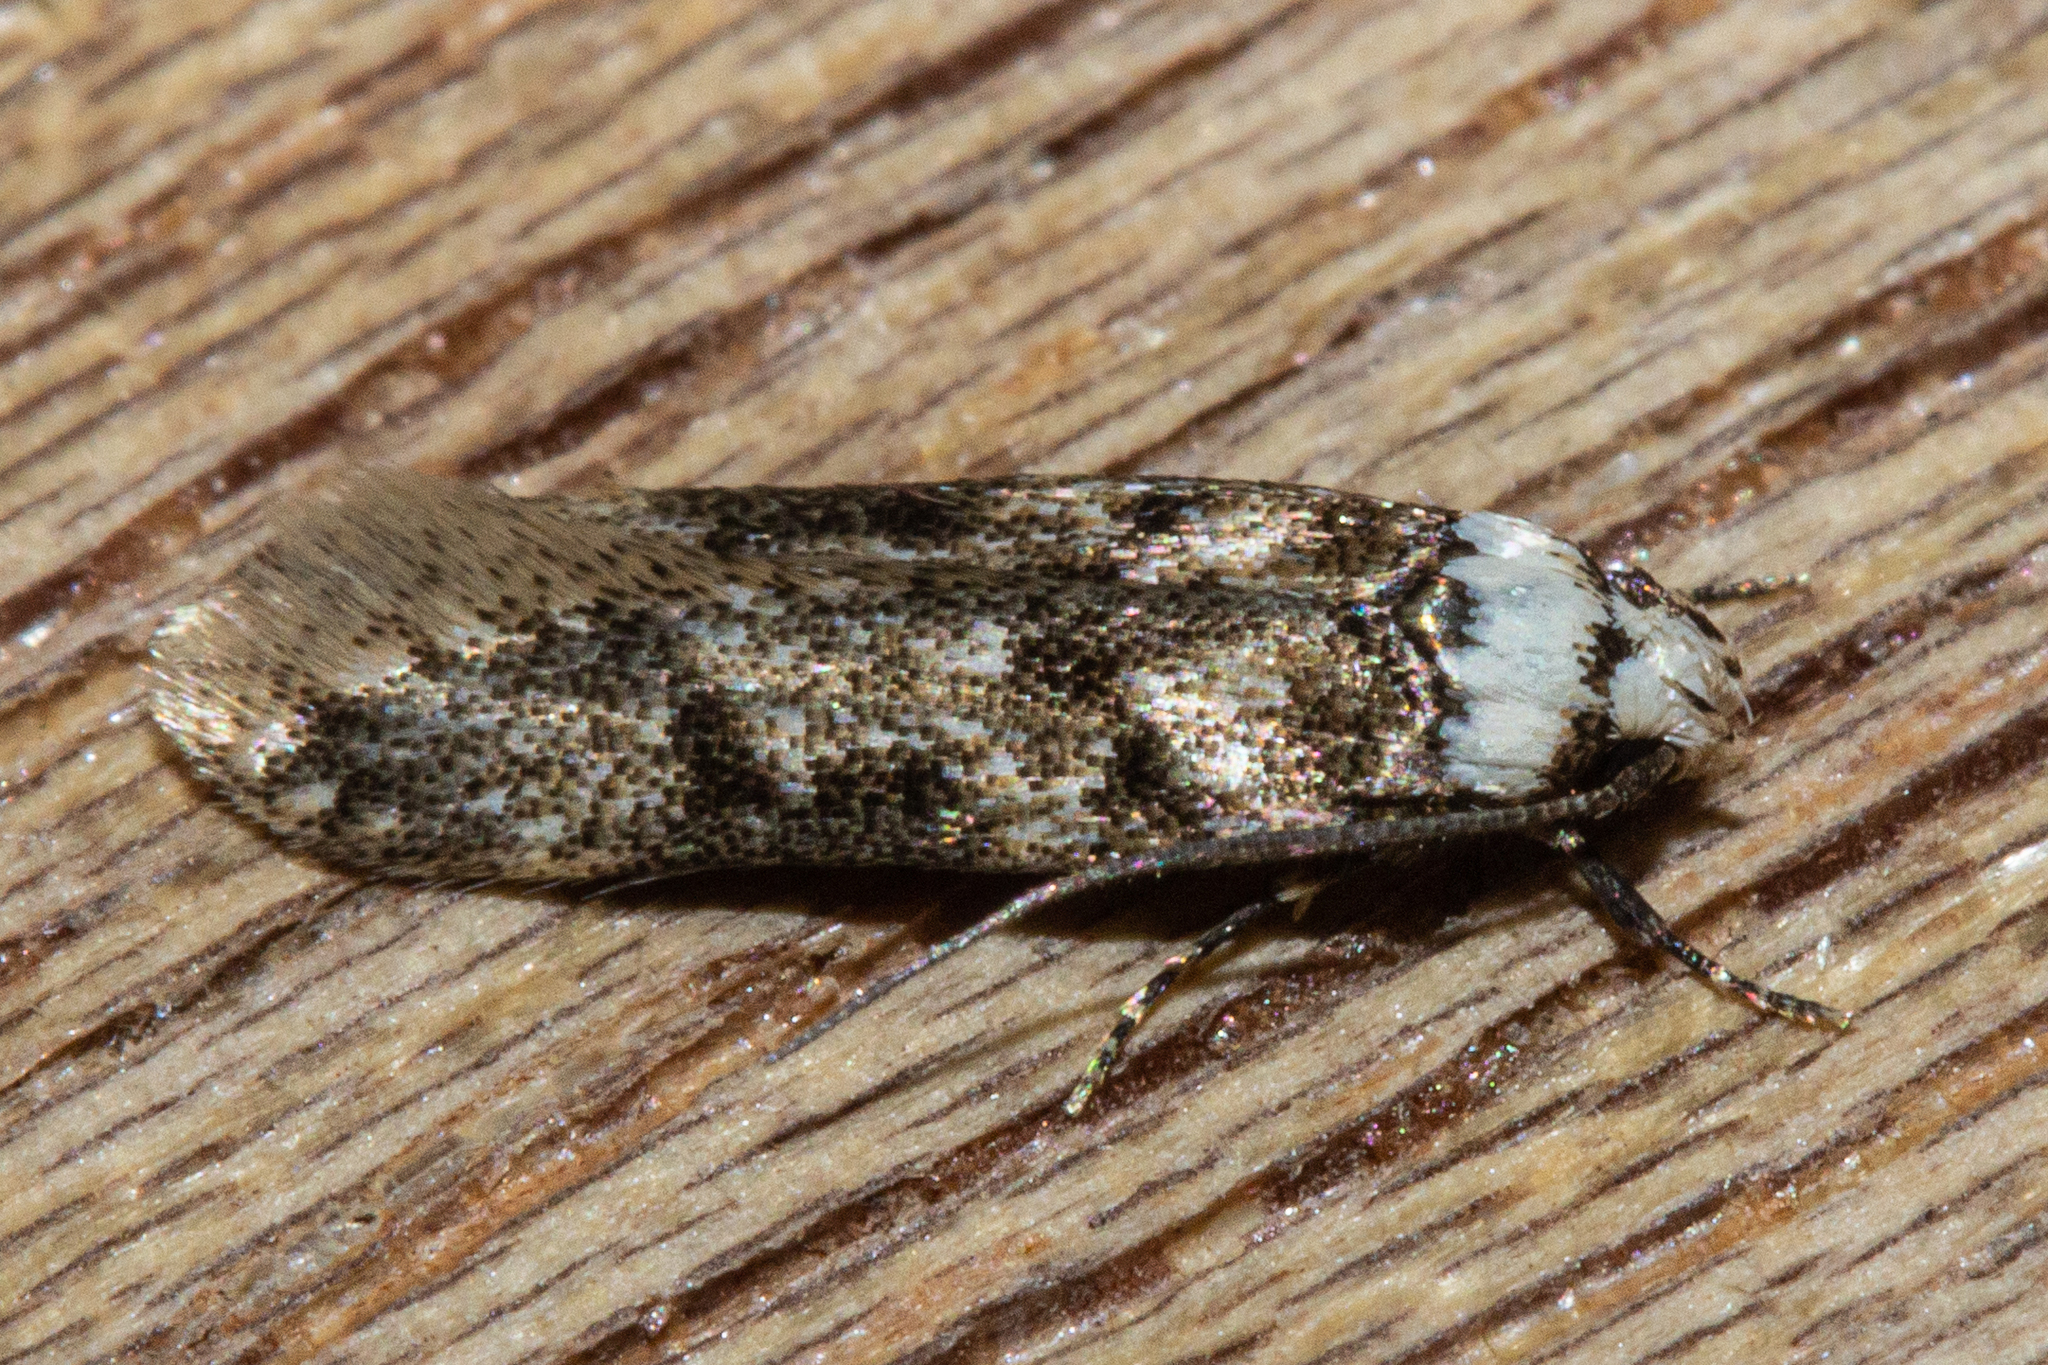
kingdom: Animalia
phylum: Arthropoda
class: Insecta
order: Lepidoptera
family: Oecophoridae
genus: Endrosis
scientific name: Endrosis sarcitrella
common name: White-shouldered house moth
